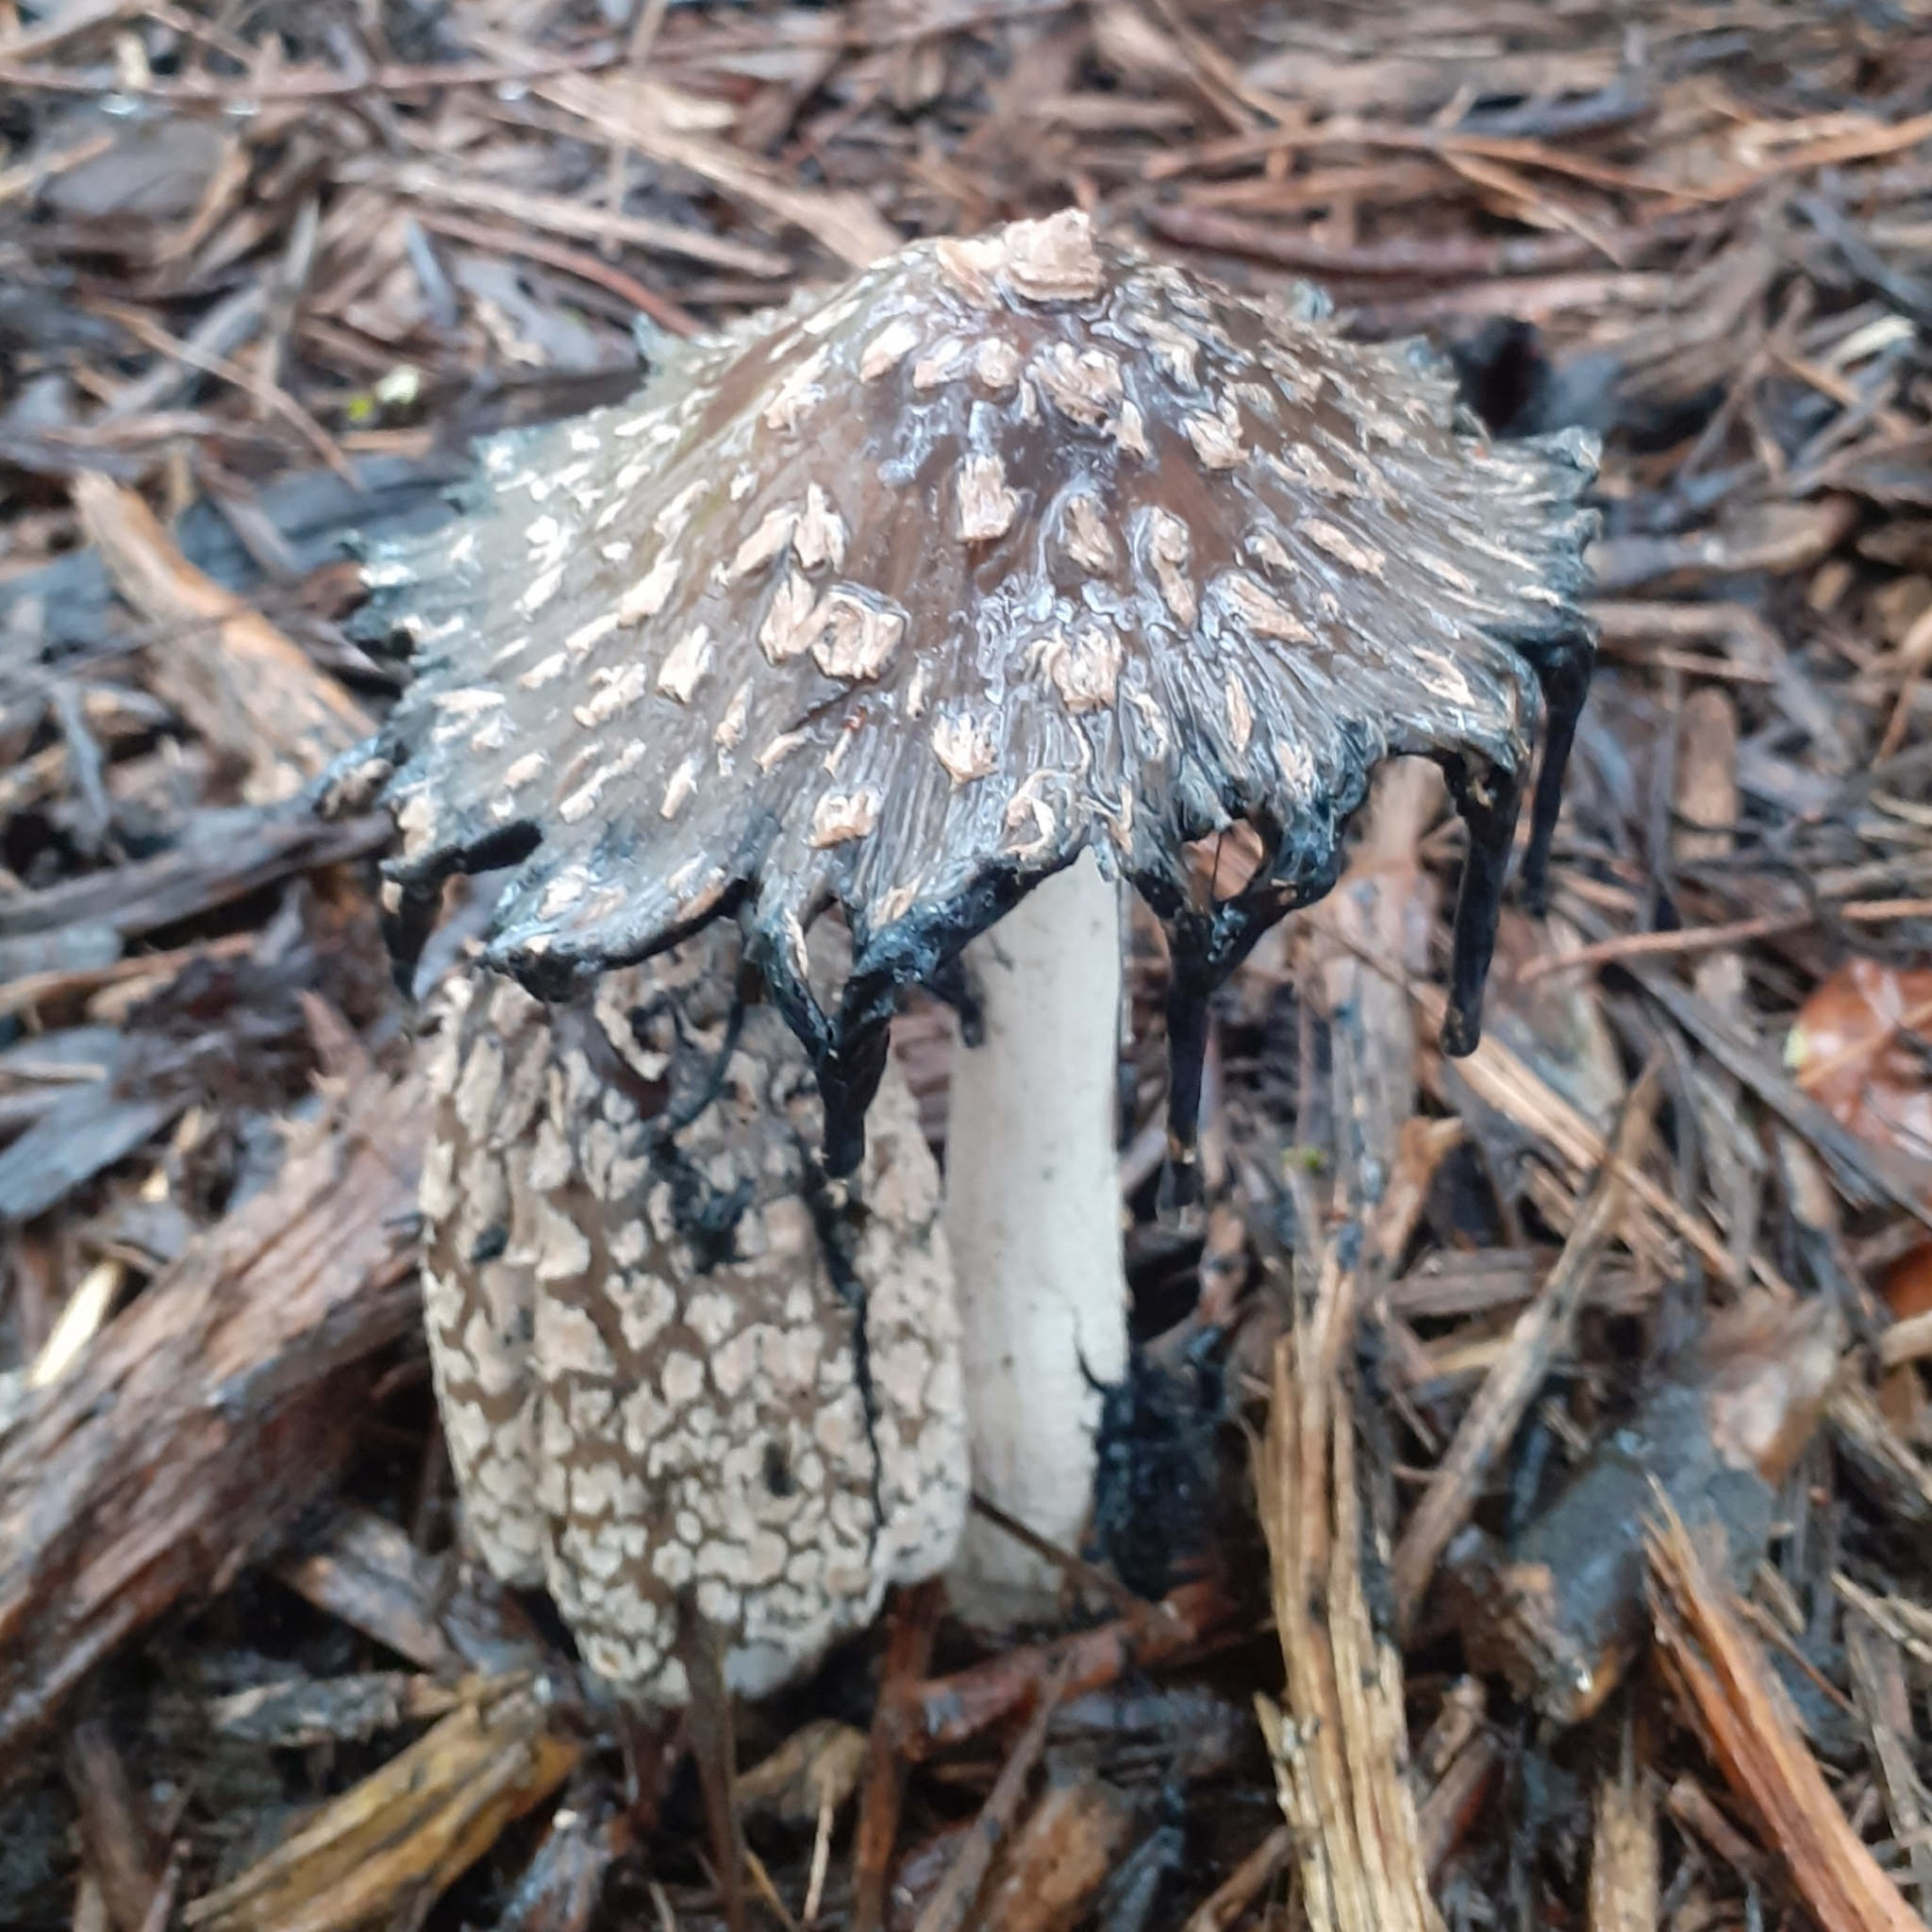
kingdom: Fungi
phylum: Basidiomycota
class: Agaricomycetes
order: Agaricales
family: Psathyrellaceae
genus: Coprinopsis
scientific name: Coprinopsis picacea
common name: Magpie inkcap
